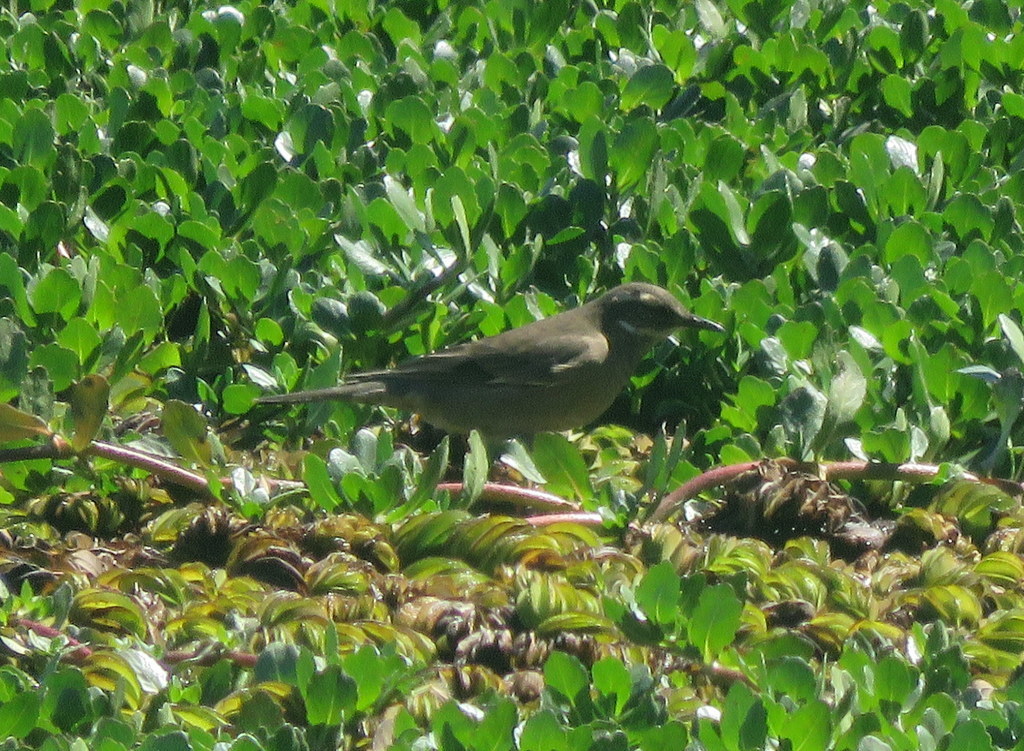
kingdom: Animalia
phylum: Chordata
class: Aves
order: Passeriformes
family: Furnariidae
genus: Cinclodes
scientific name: Cinclodes fuscus
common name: Buff-winged cinclodes
